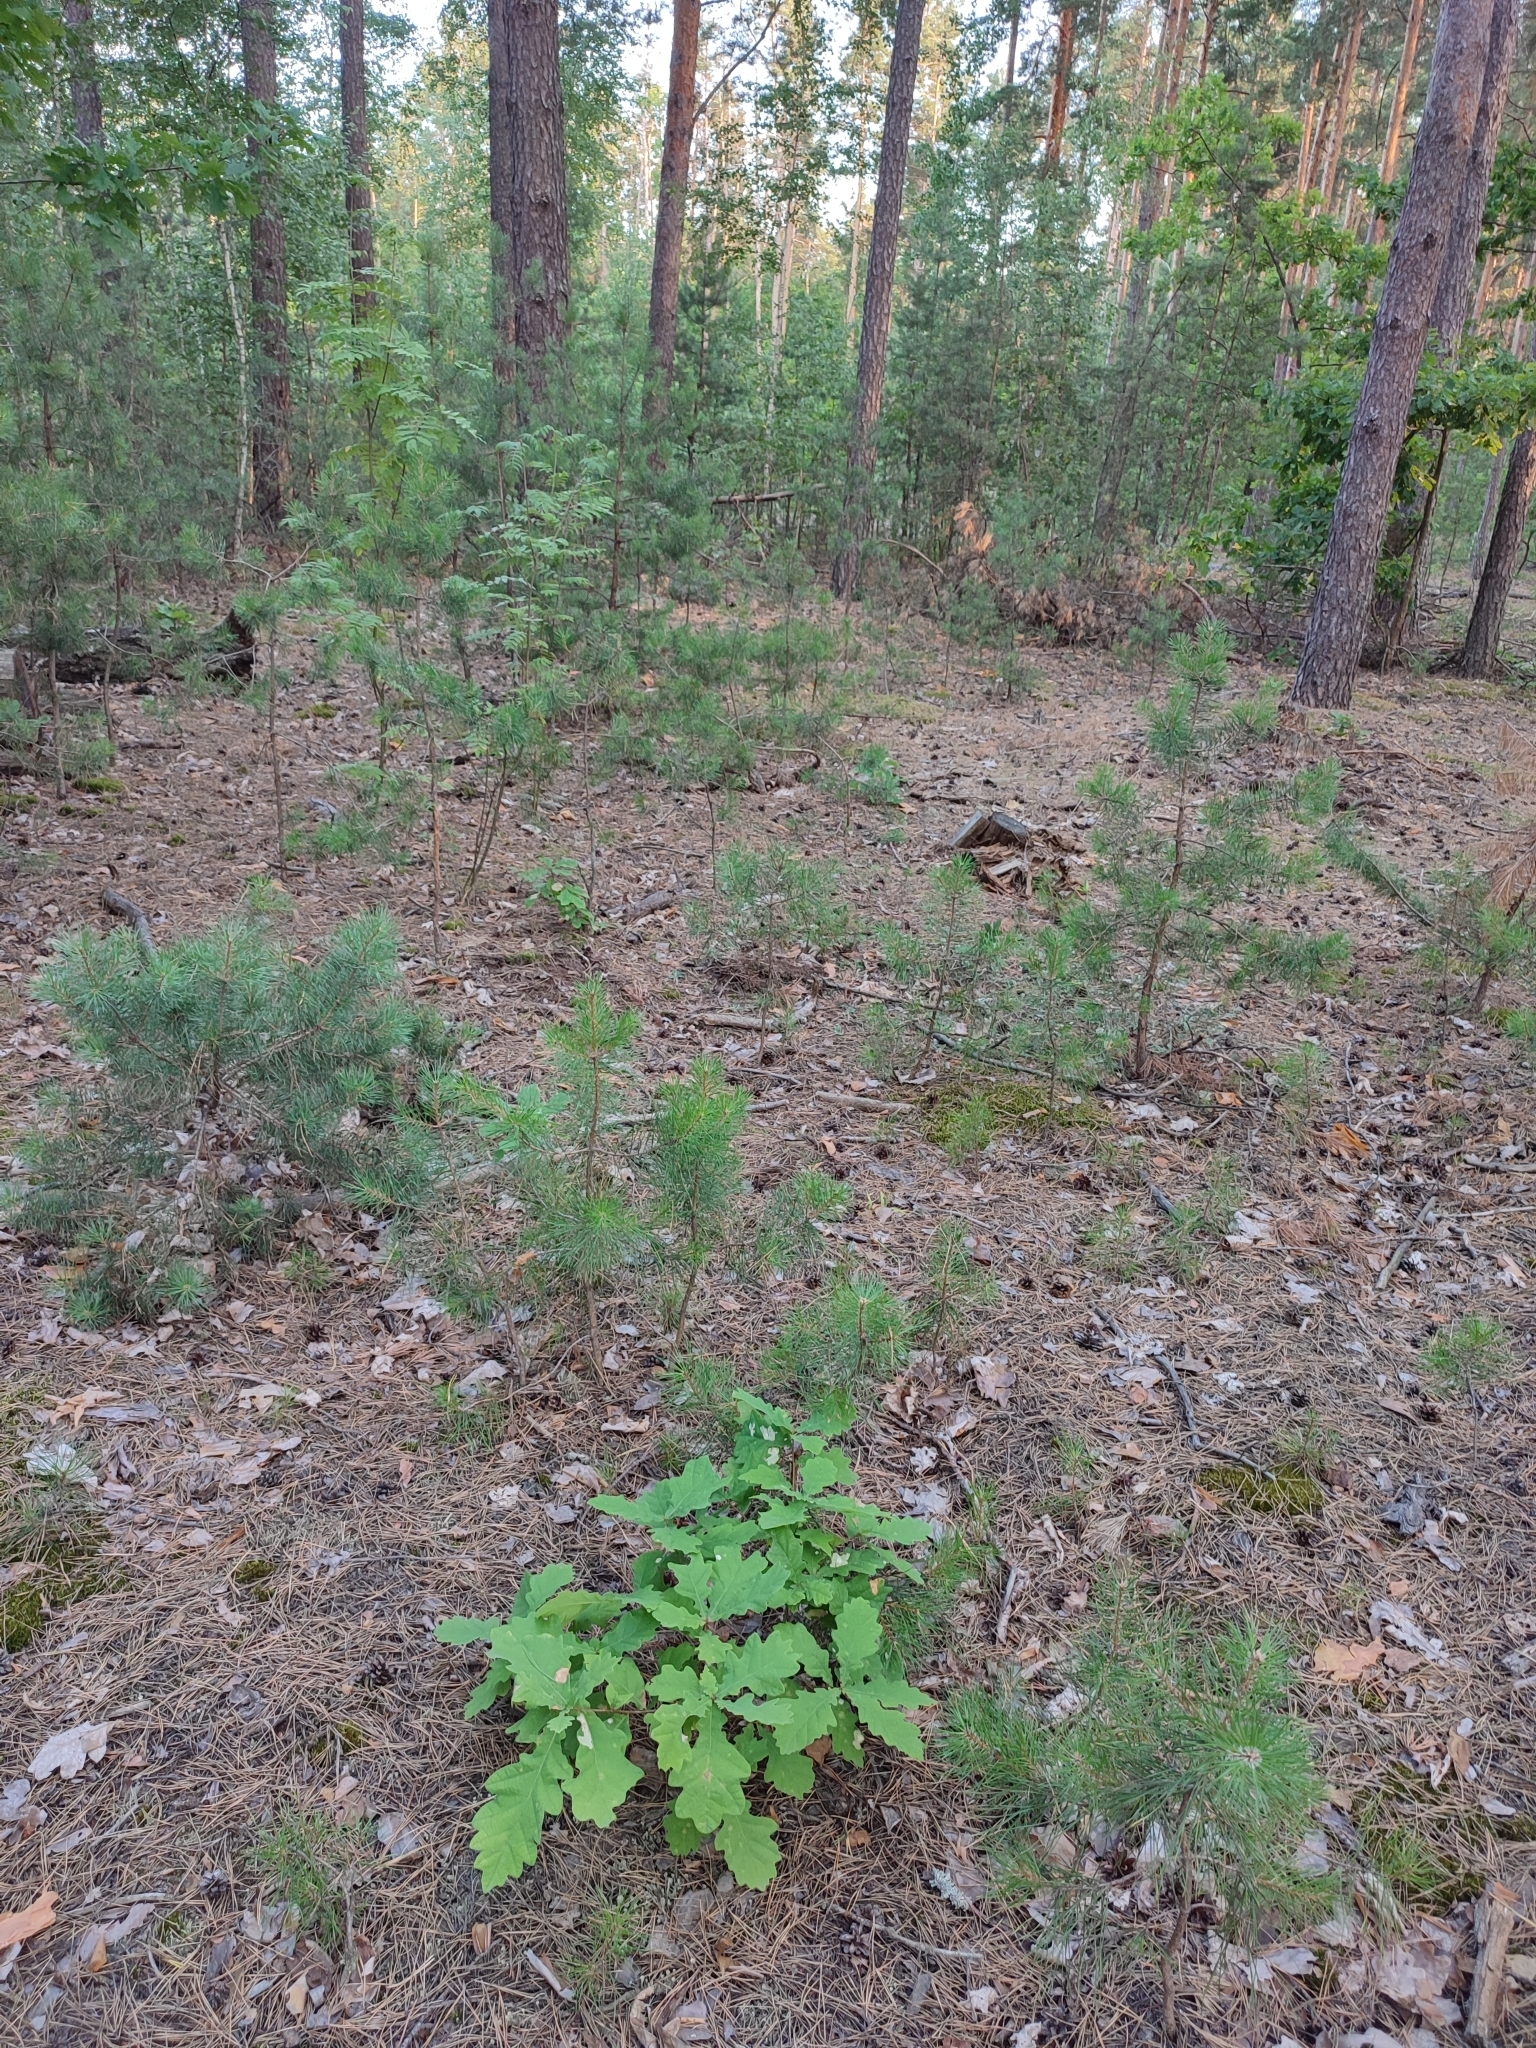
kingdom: Plantae
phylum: Tracheophyta
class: Magnoliopsida
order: Fagales
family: Fagaceae
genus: Quercus
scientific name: Quercus robur
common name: Pedunculate oak
